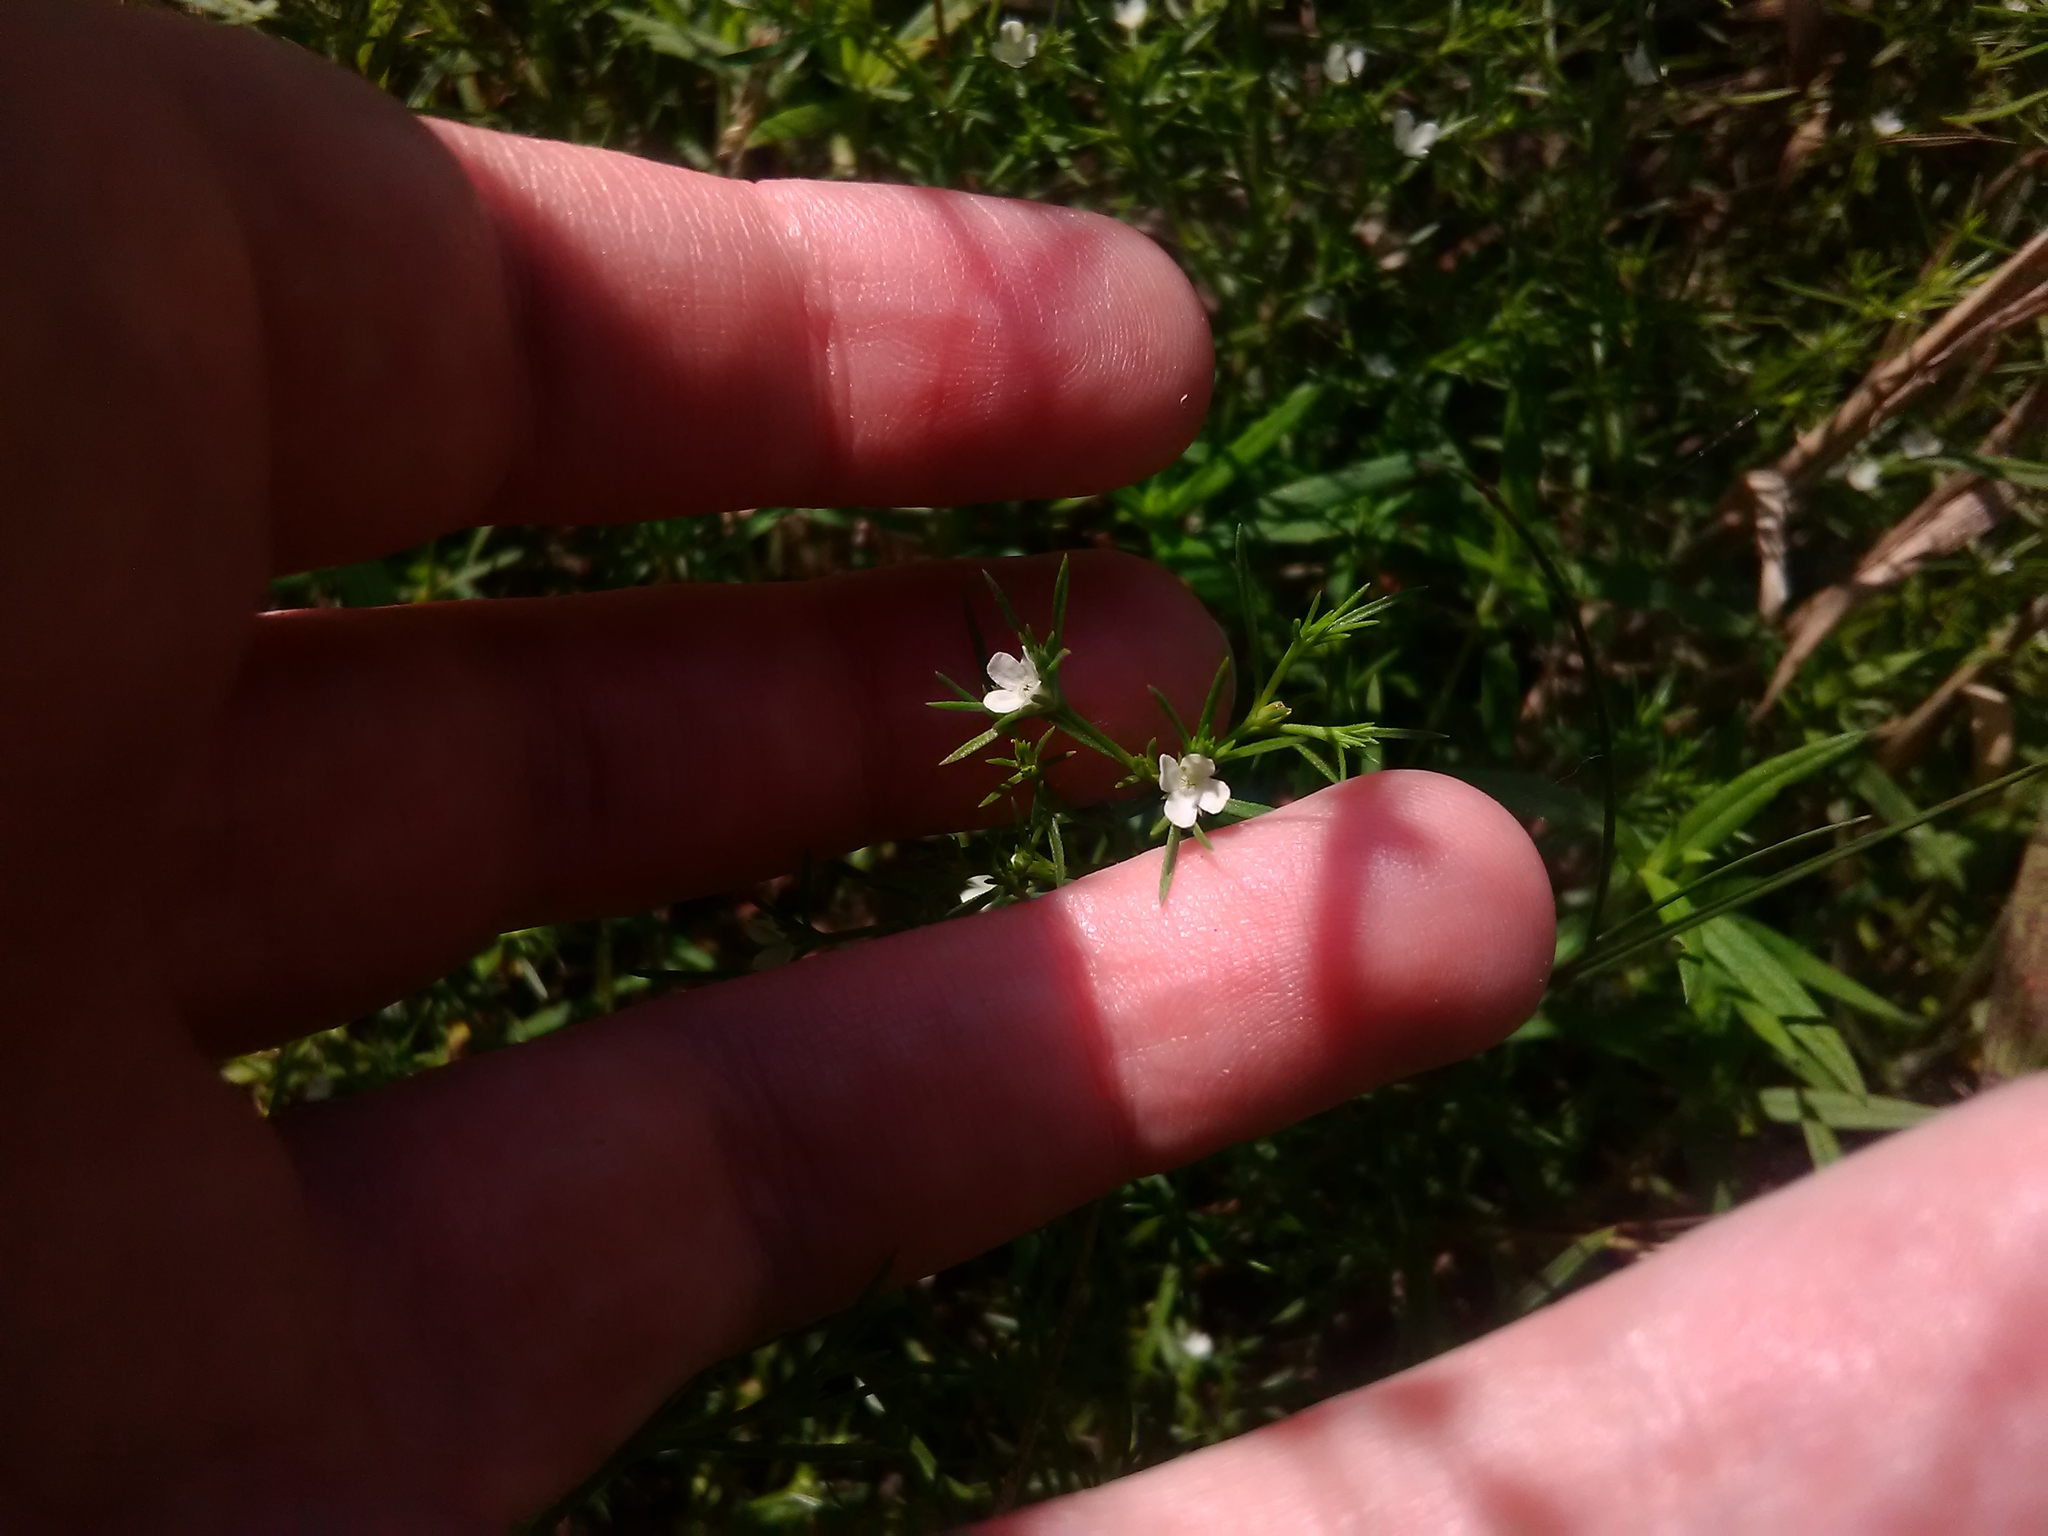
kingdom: Plantae
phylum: Tracheophyta
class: Magnoliopsida
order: Lamiales
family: Tetrachondraceae
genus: Polypremum
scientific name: Polypremum procumbens
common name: Juniper-leaf
